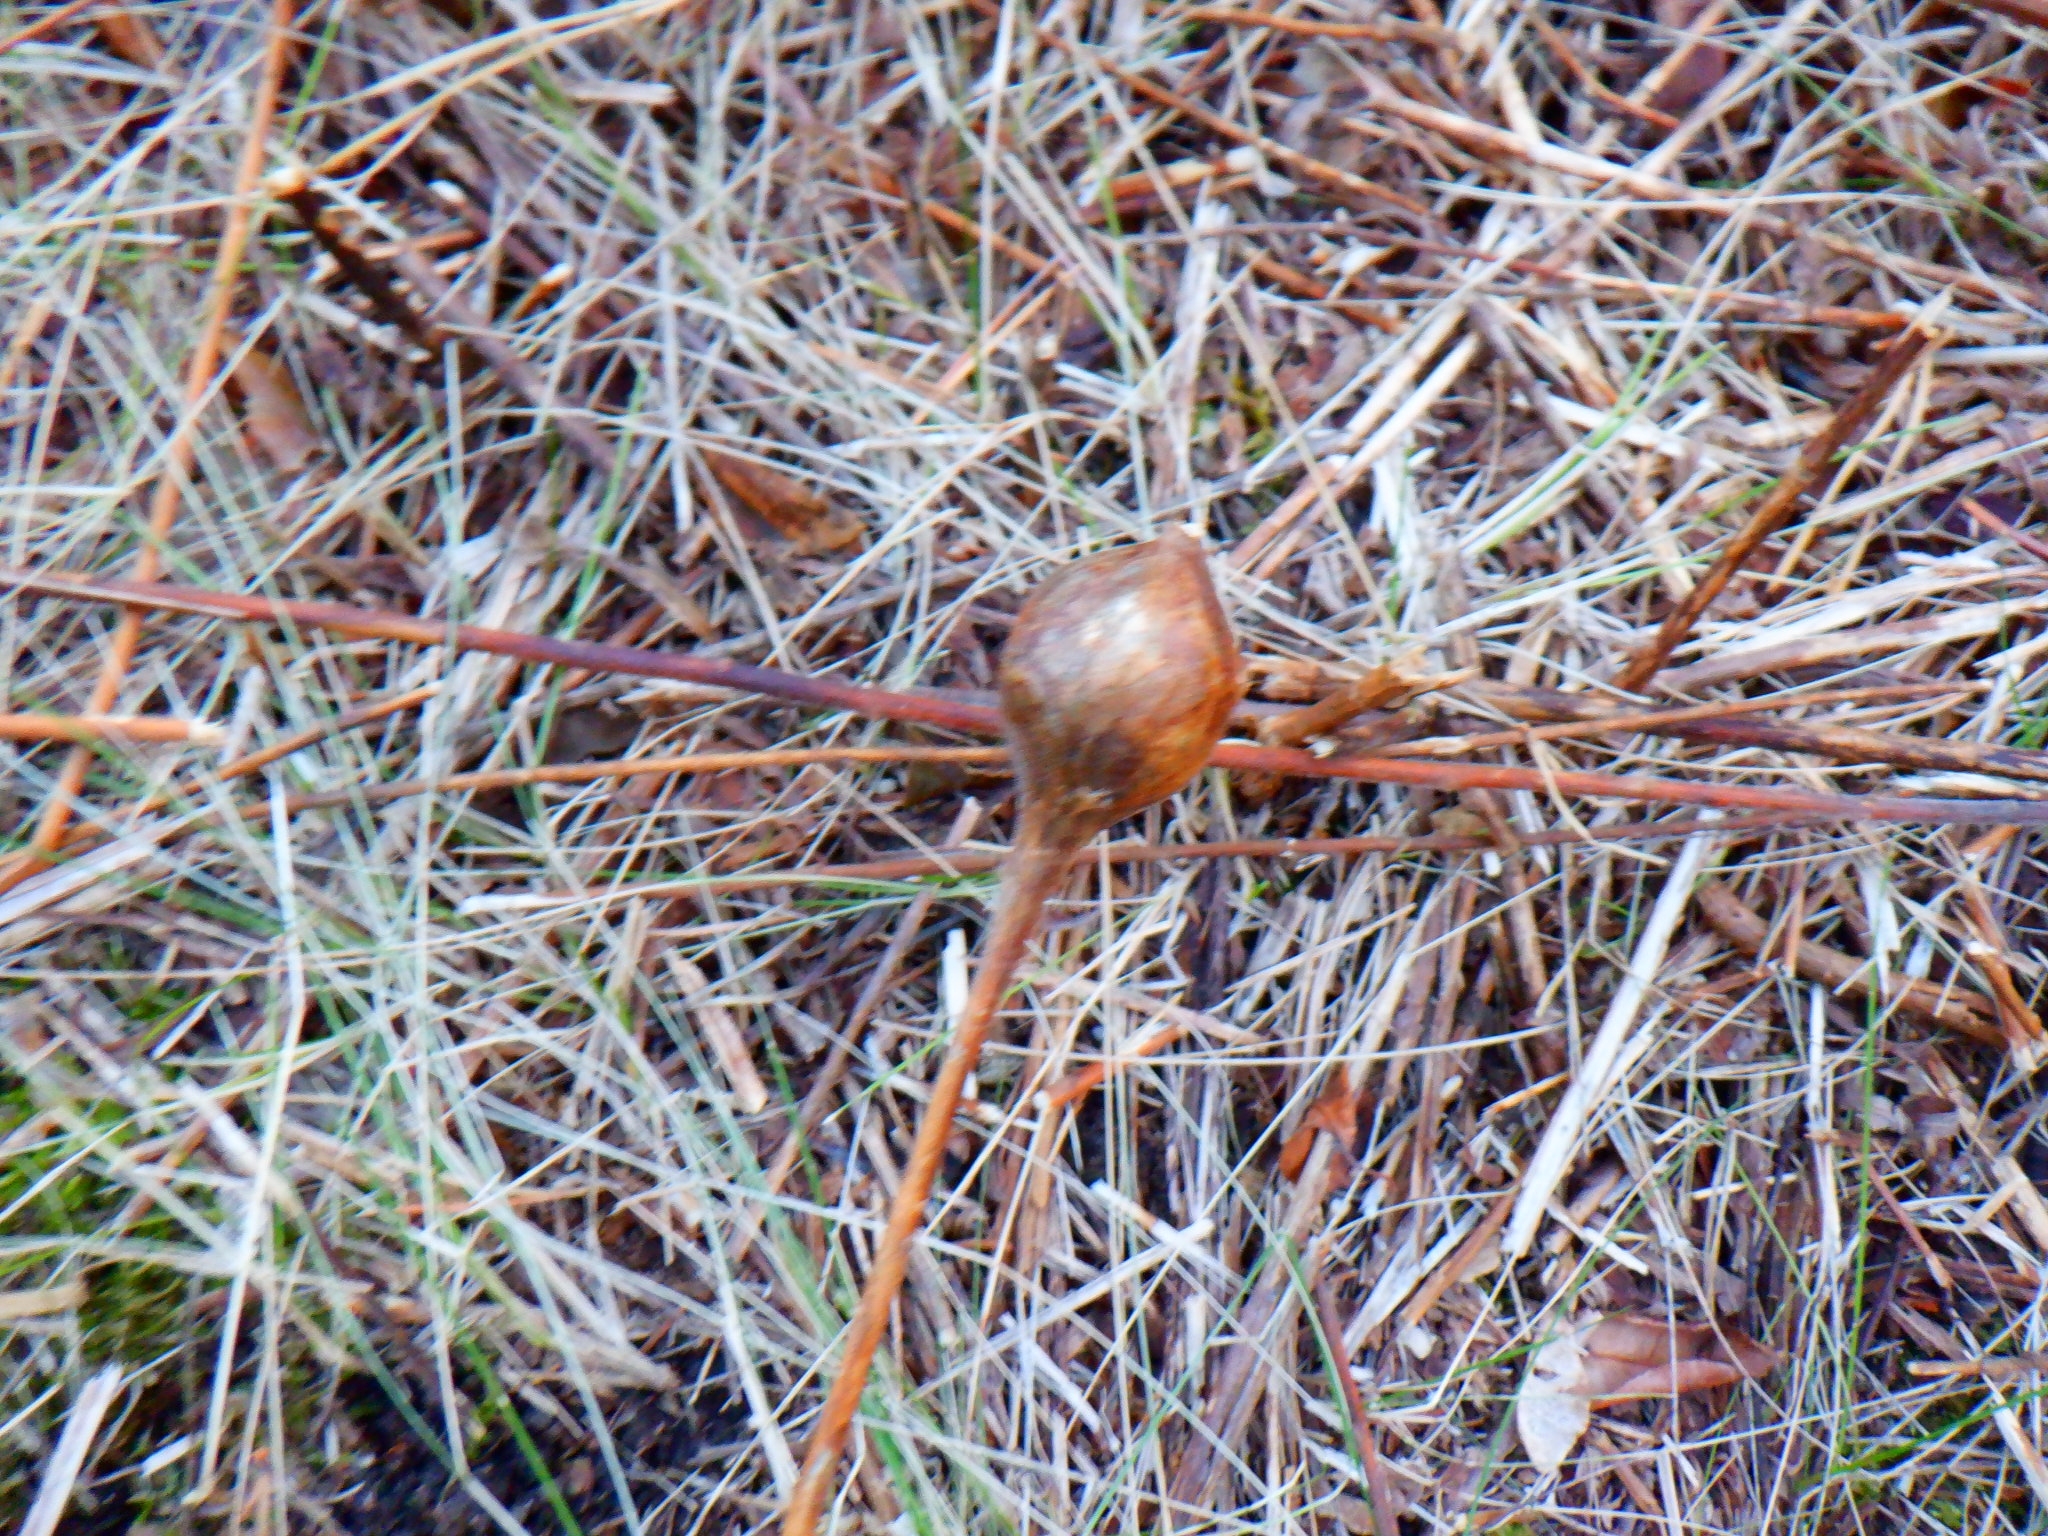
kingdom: Animalia
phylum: Arthropoda
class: Insecta
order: Diptera
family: Tephritidae
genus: Eurosta
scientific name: Eurosta solidaginis
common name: Goldenrod gall fly
